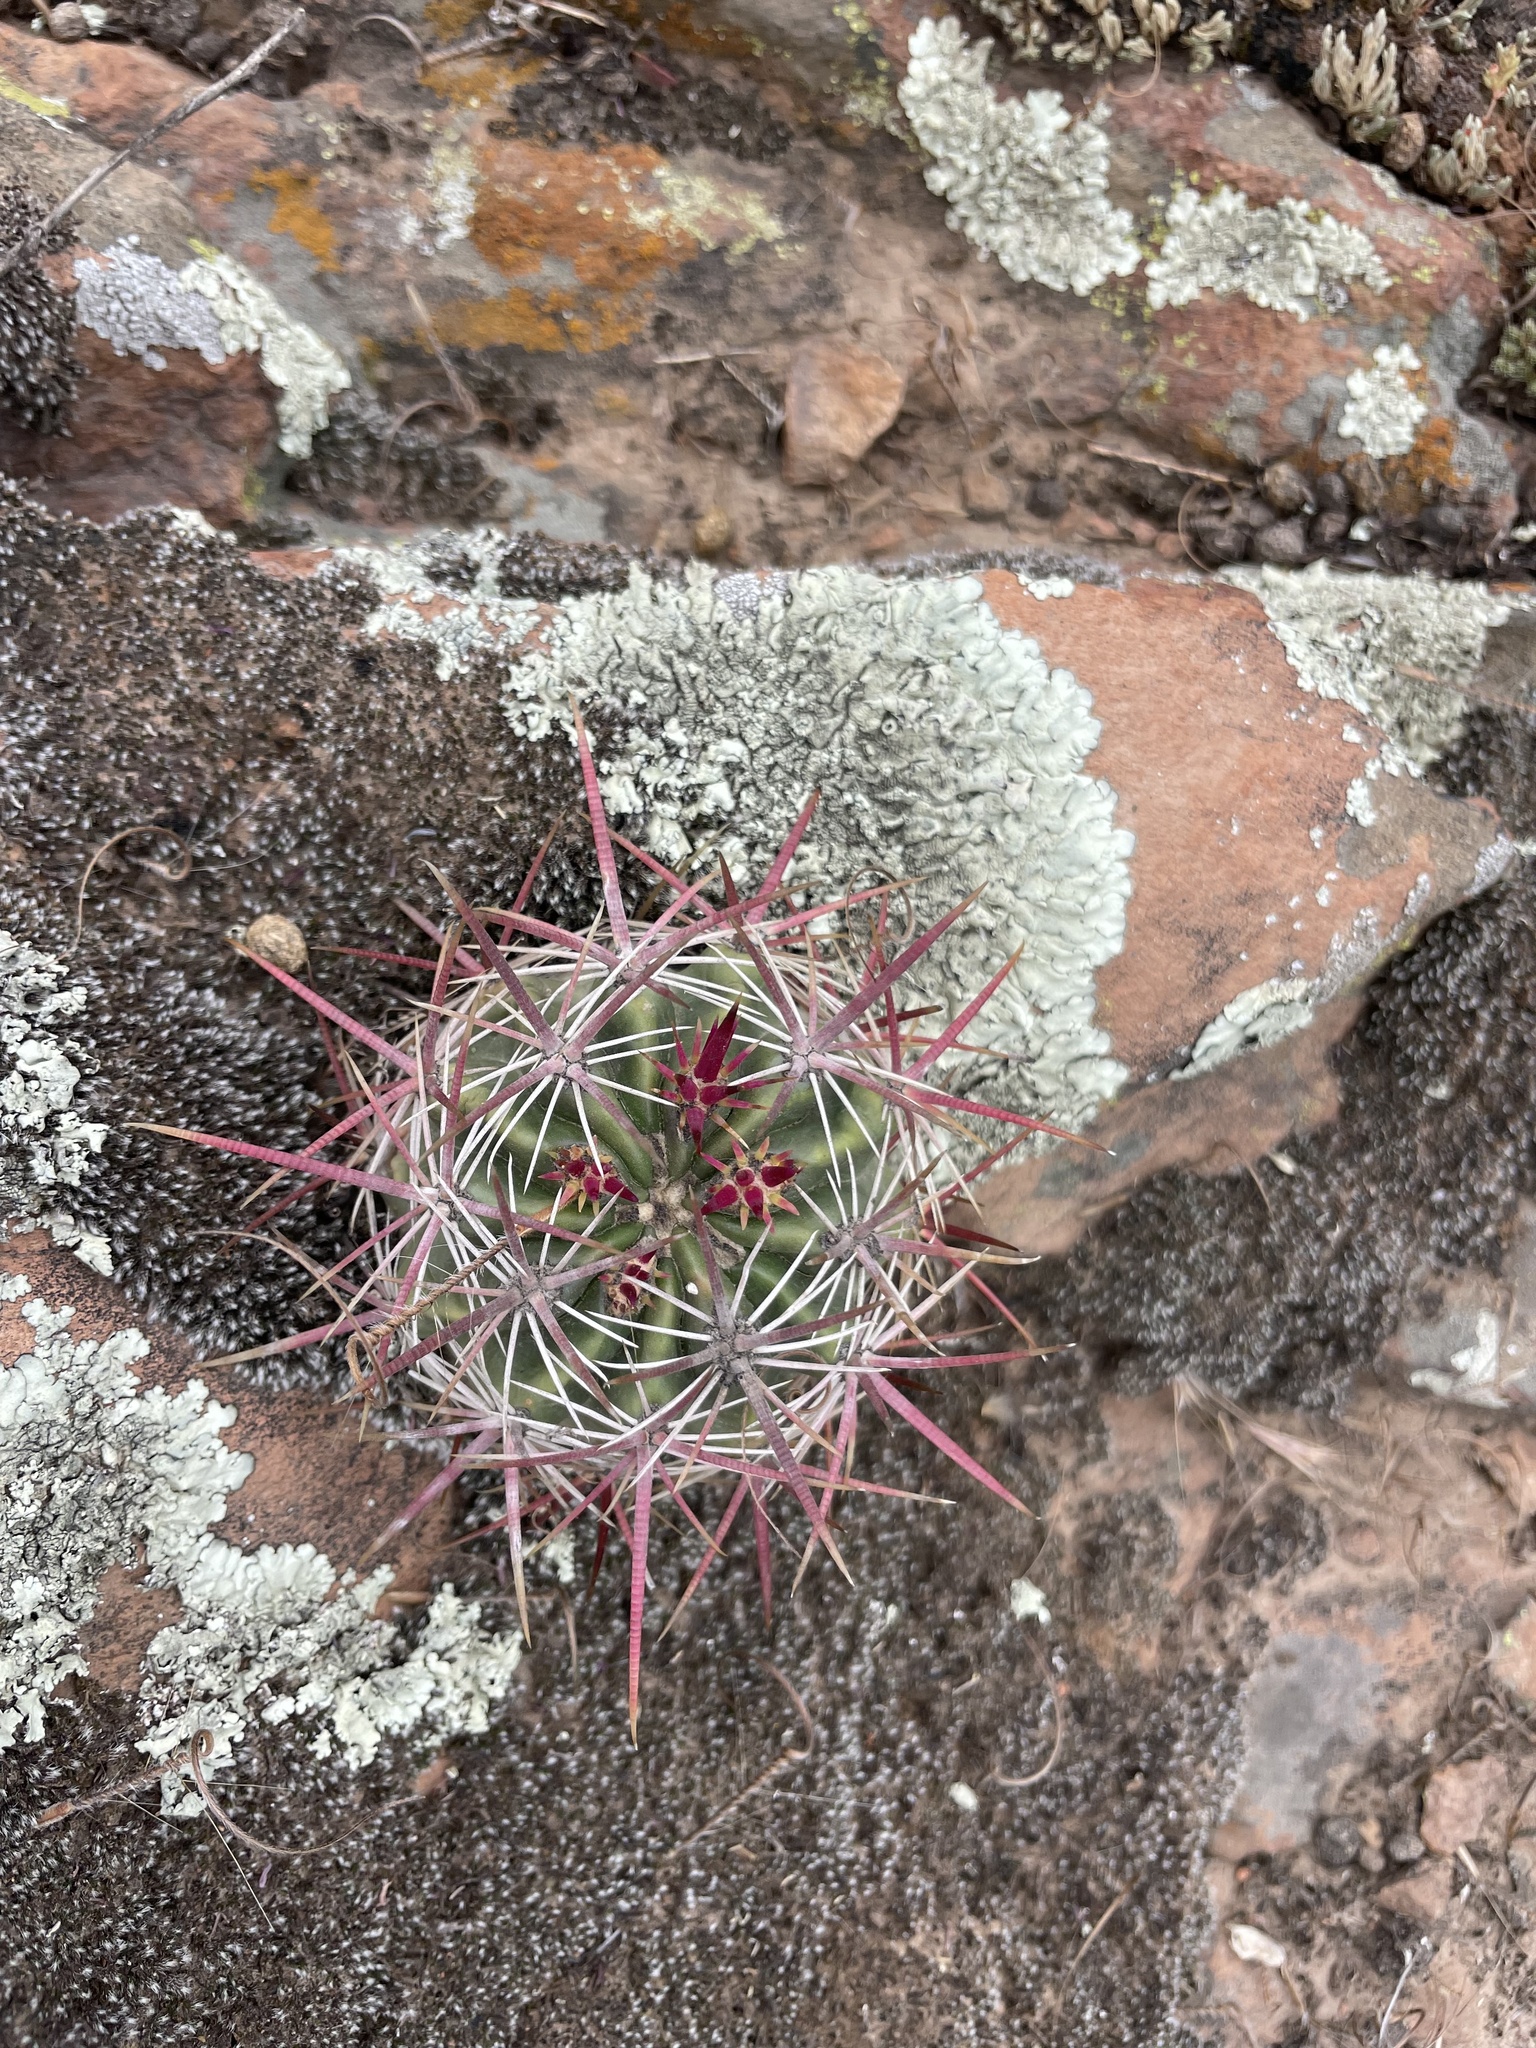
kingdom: Plantae
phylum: Tracheophyta
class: Magnoliopsida
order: Caryophyllales
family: Cactaceae
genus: Ferocactus
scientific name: Ferocactus viridescens
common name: San diego barrel cactus
